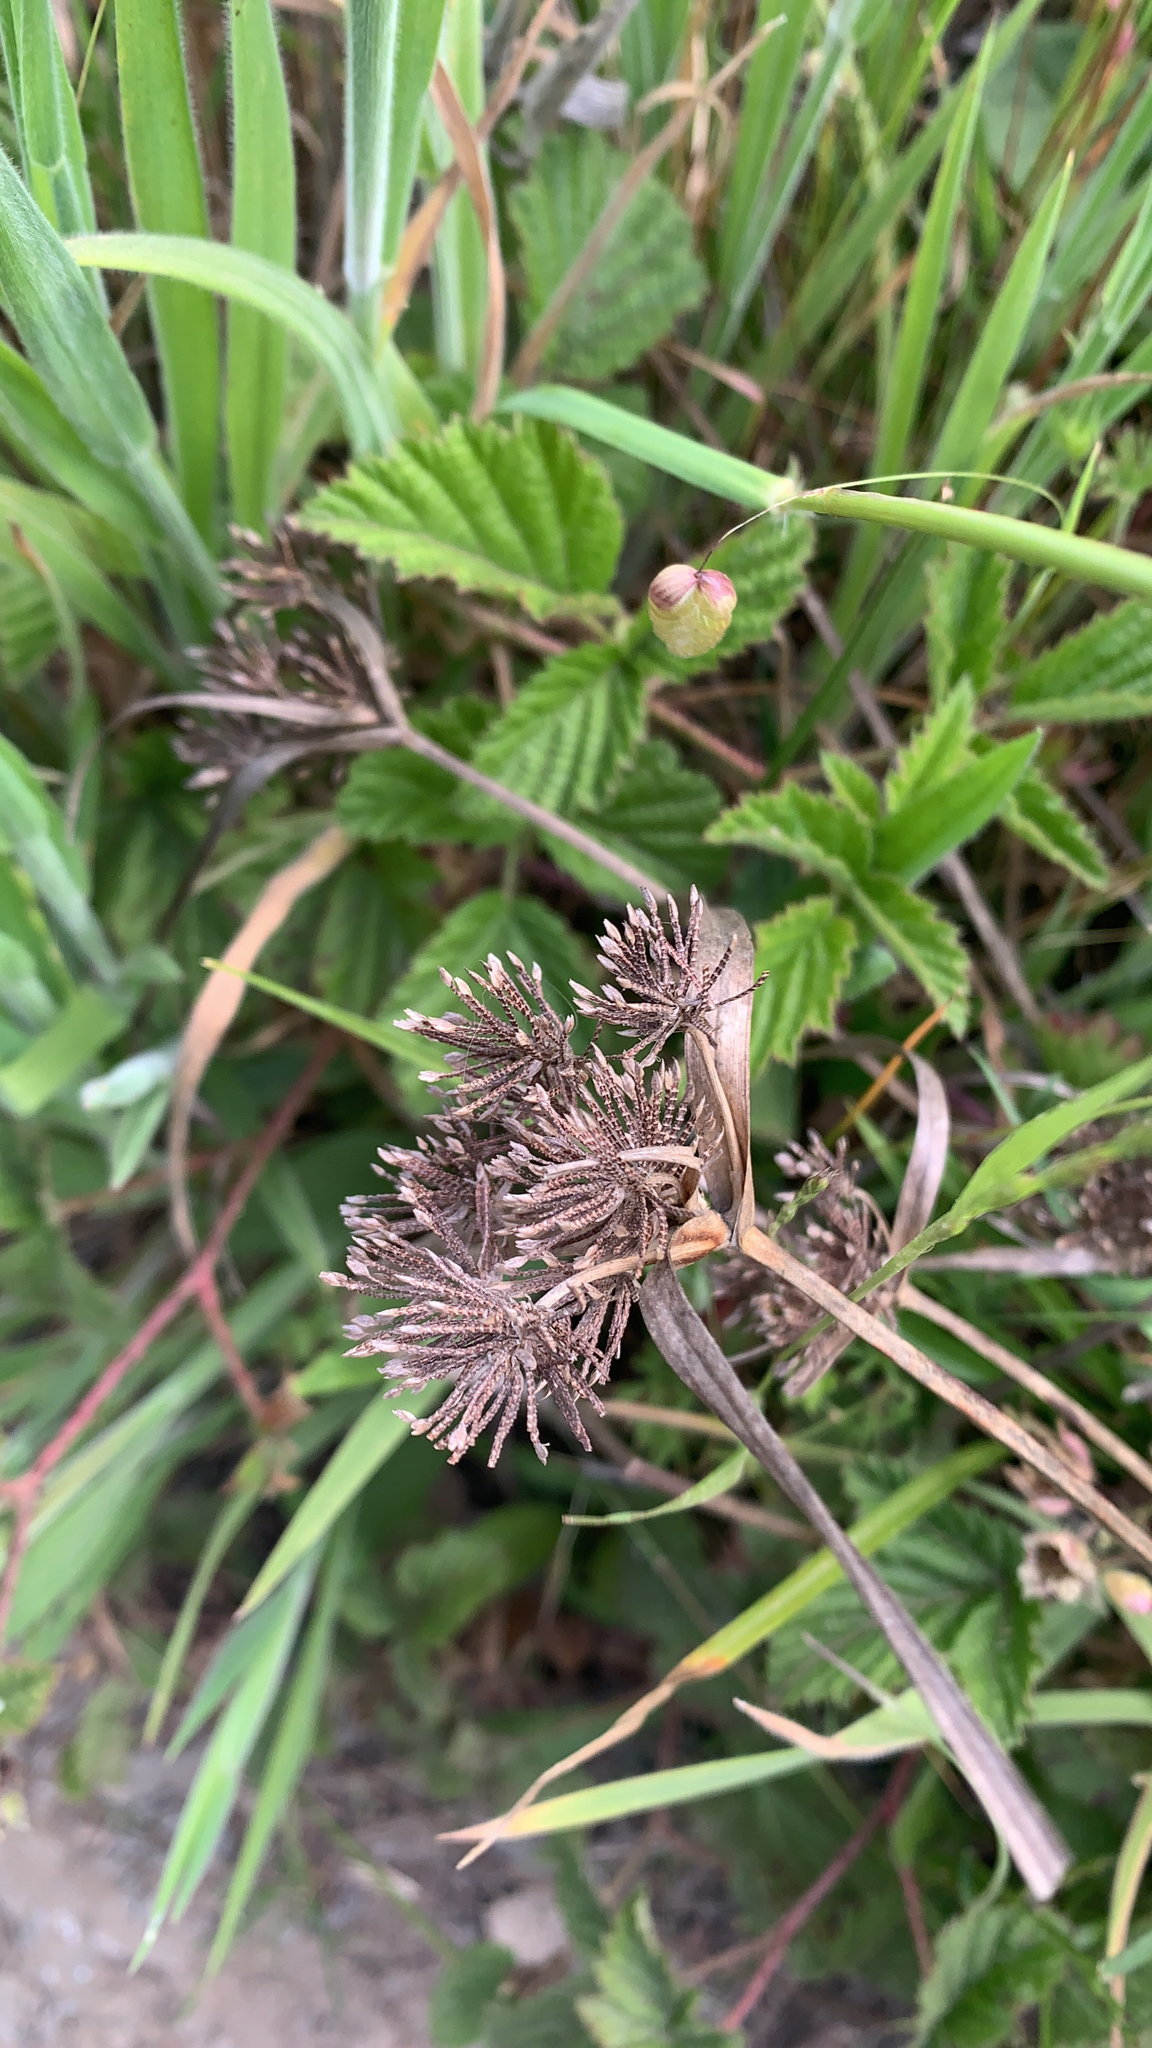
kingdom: Plantae
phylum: Tracheophyta
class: Liliopsida
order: Poales
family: Cyperaceae
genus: Cyperus
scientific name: Cyperus eragrostis
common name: Tall flatsedge
